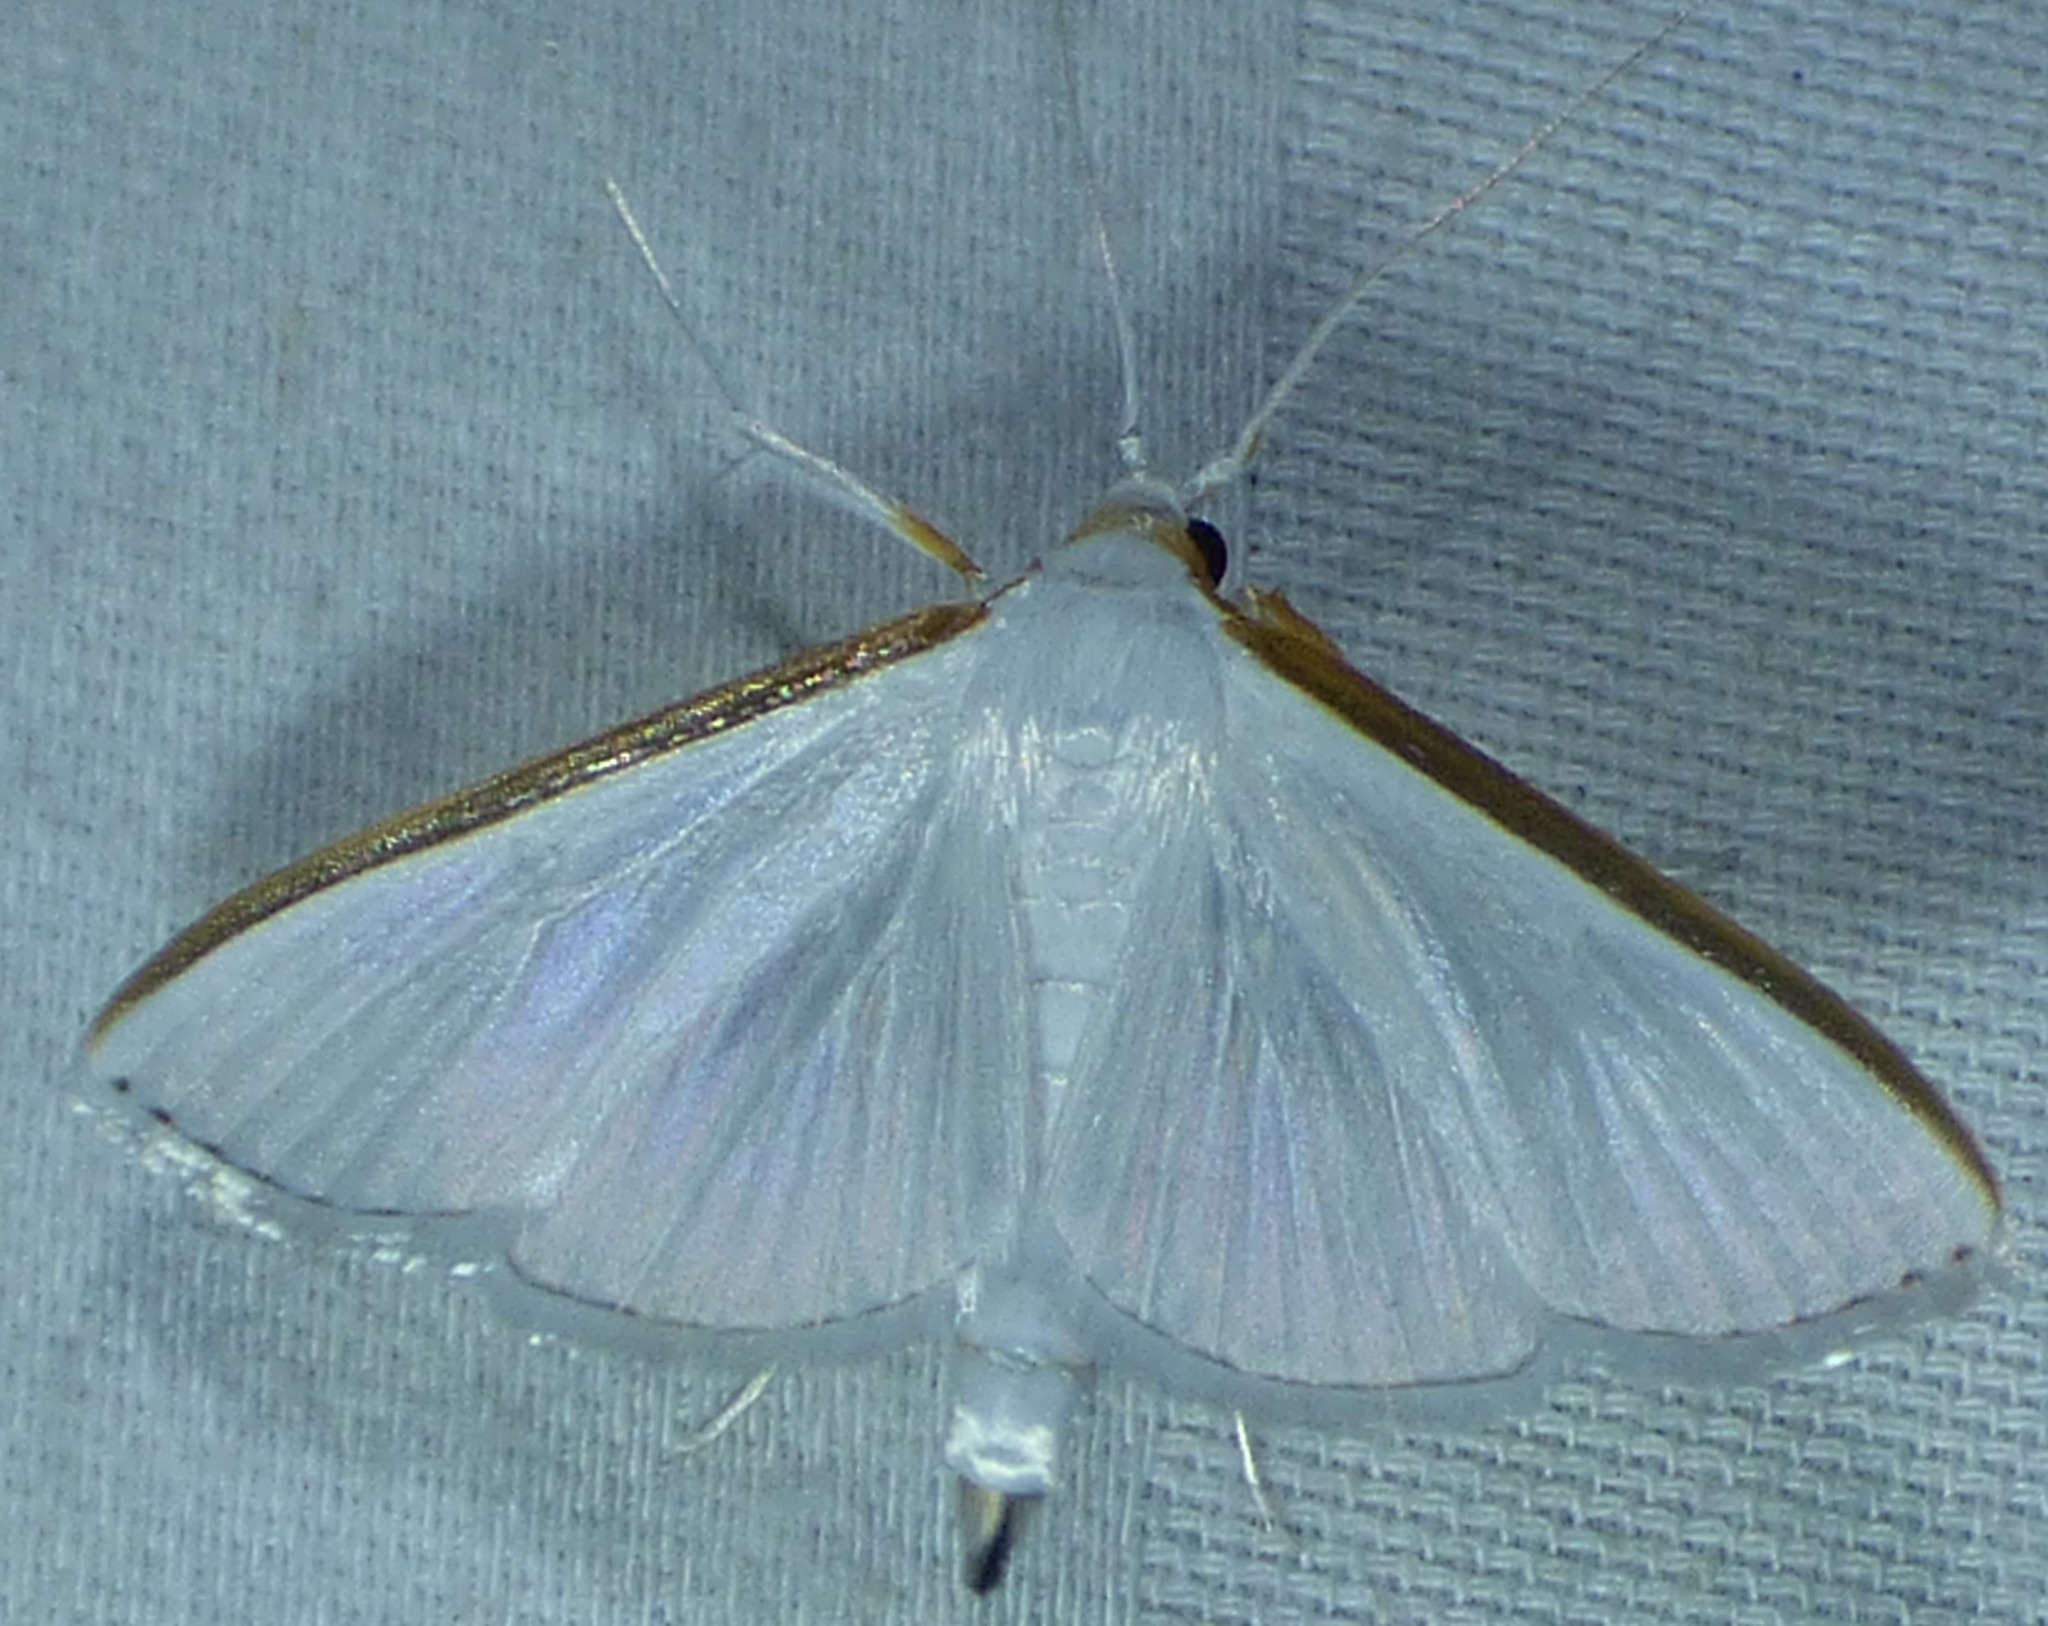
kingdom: Animalia
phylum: Arthropoda
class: Insecta
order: Lepidoptera
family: Crambidae
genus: Diaphania
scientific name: Diaphania costata
